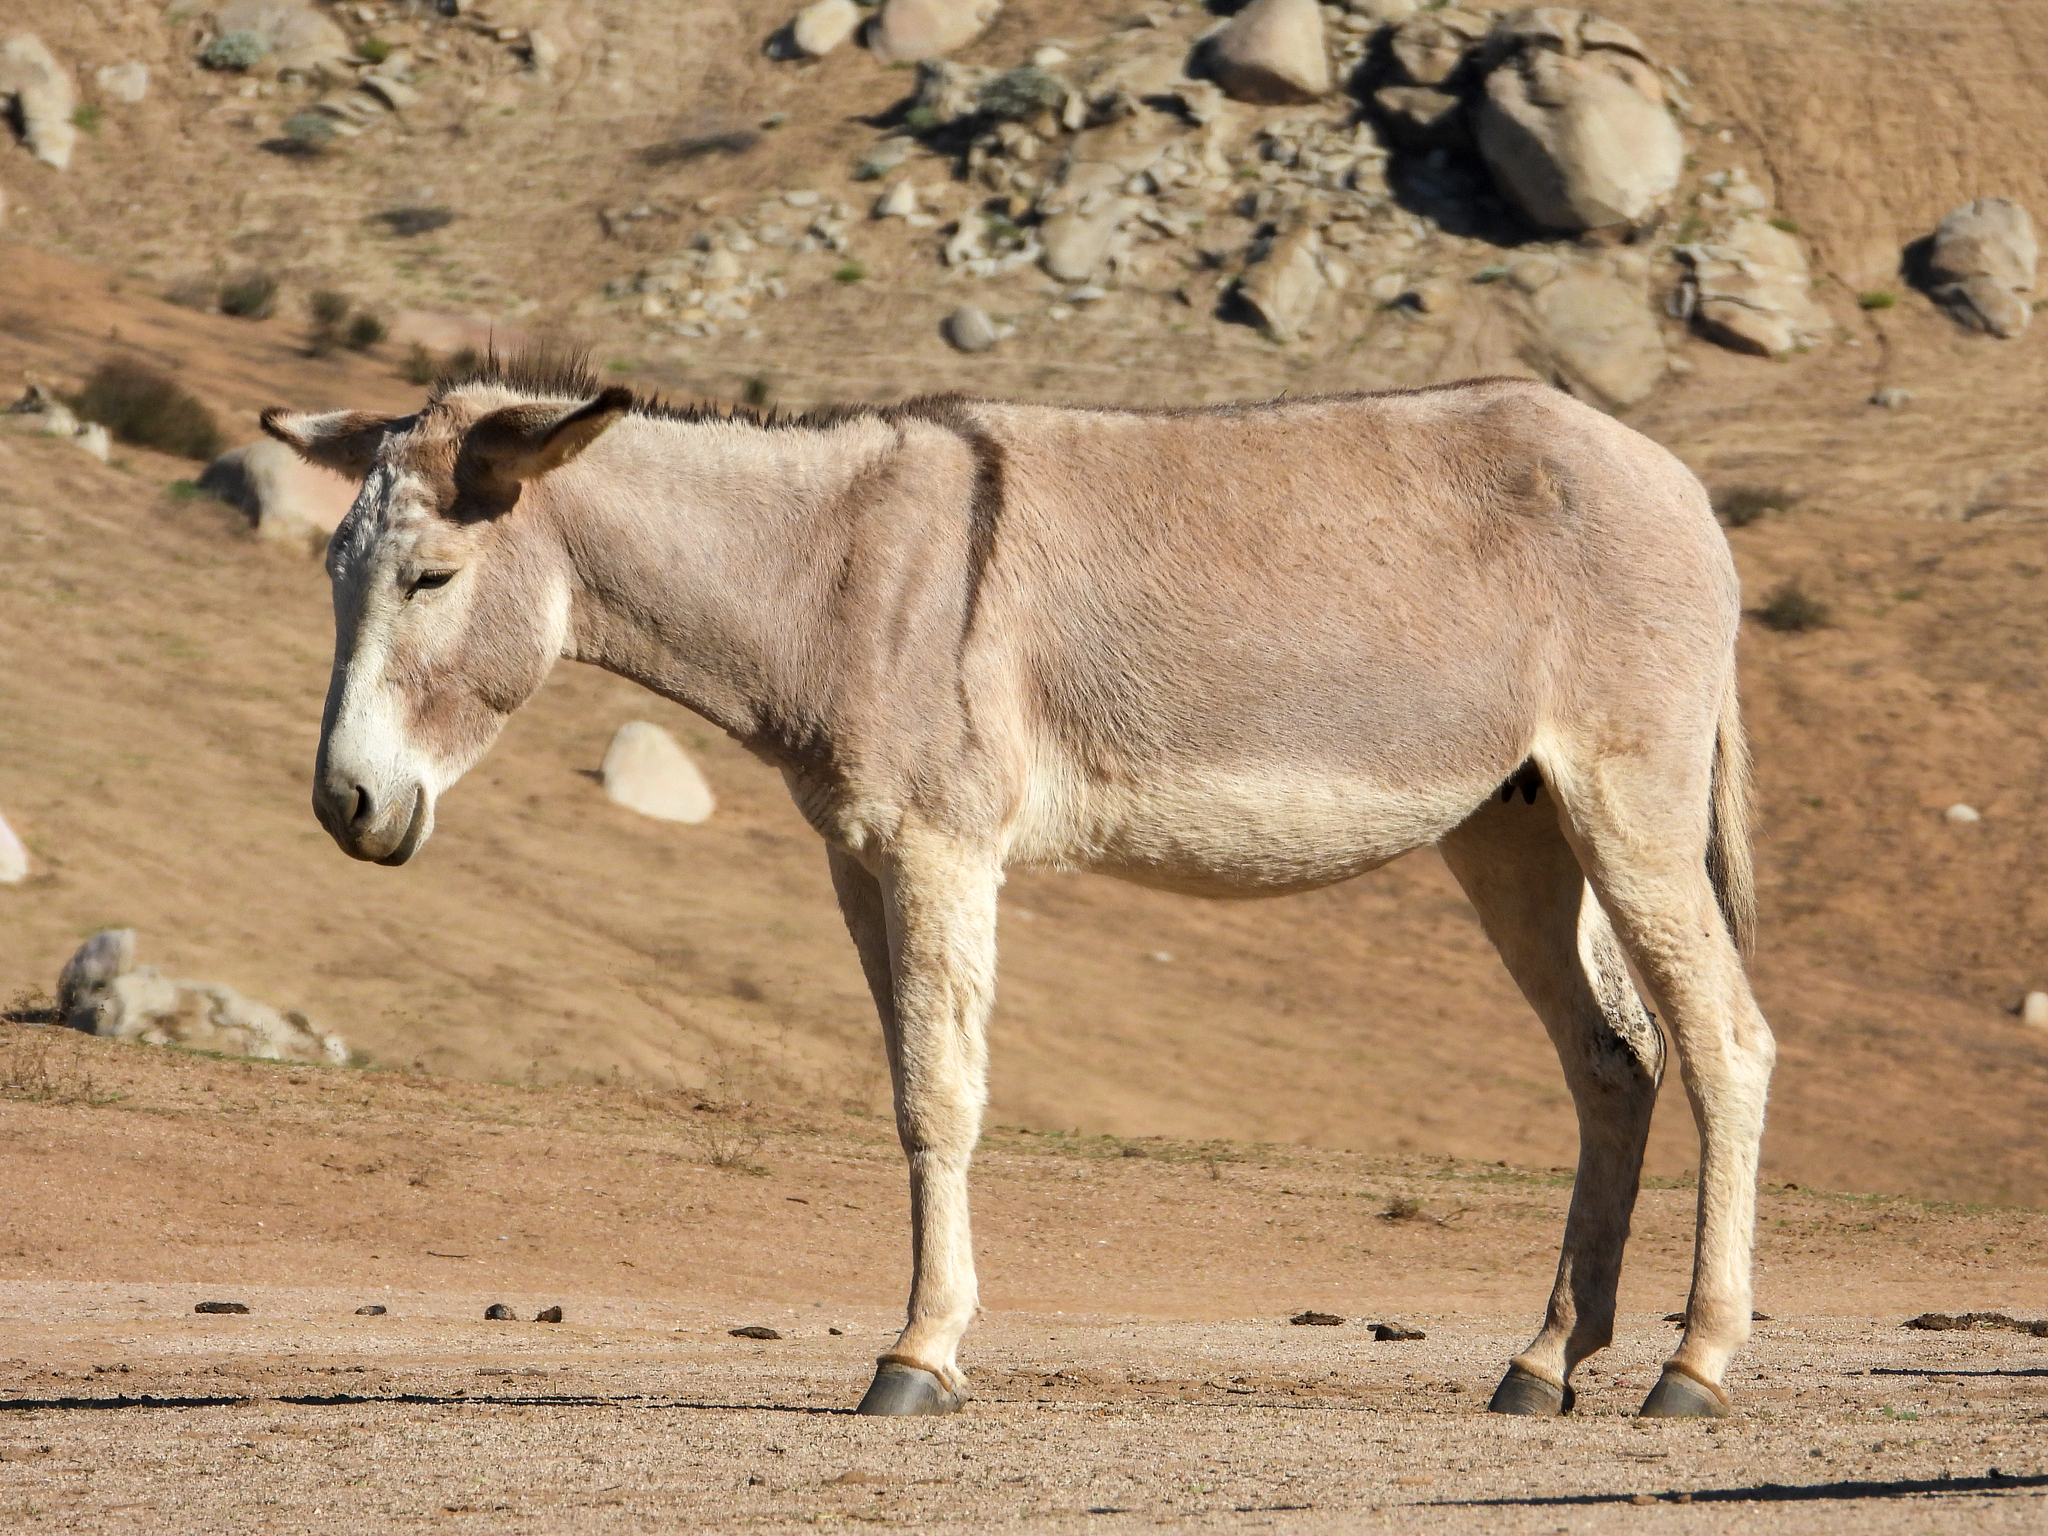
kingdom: Animalia
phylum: Chordata
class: Mammalia
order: Perissodactyla
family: Equidae
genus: Equus
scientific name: Equus asinus
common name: Ass
